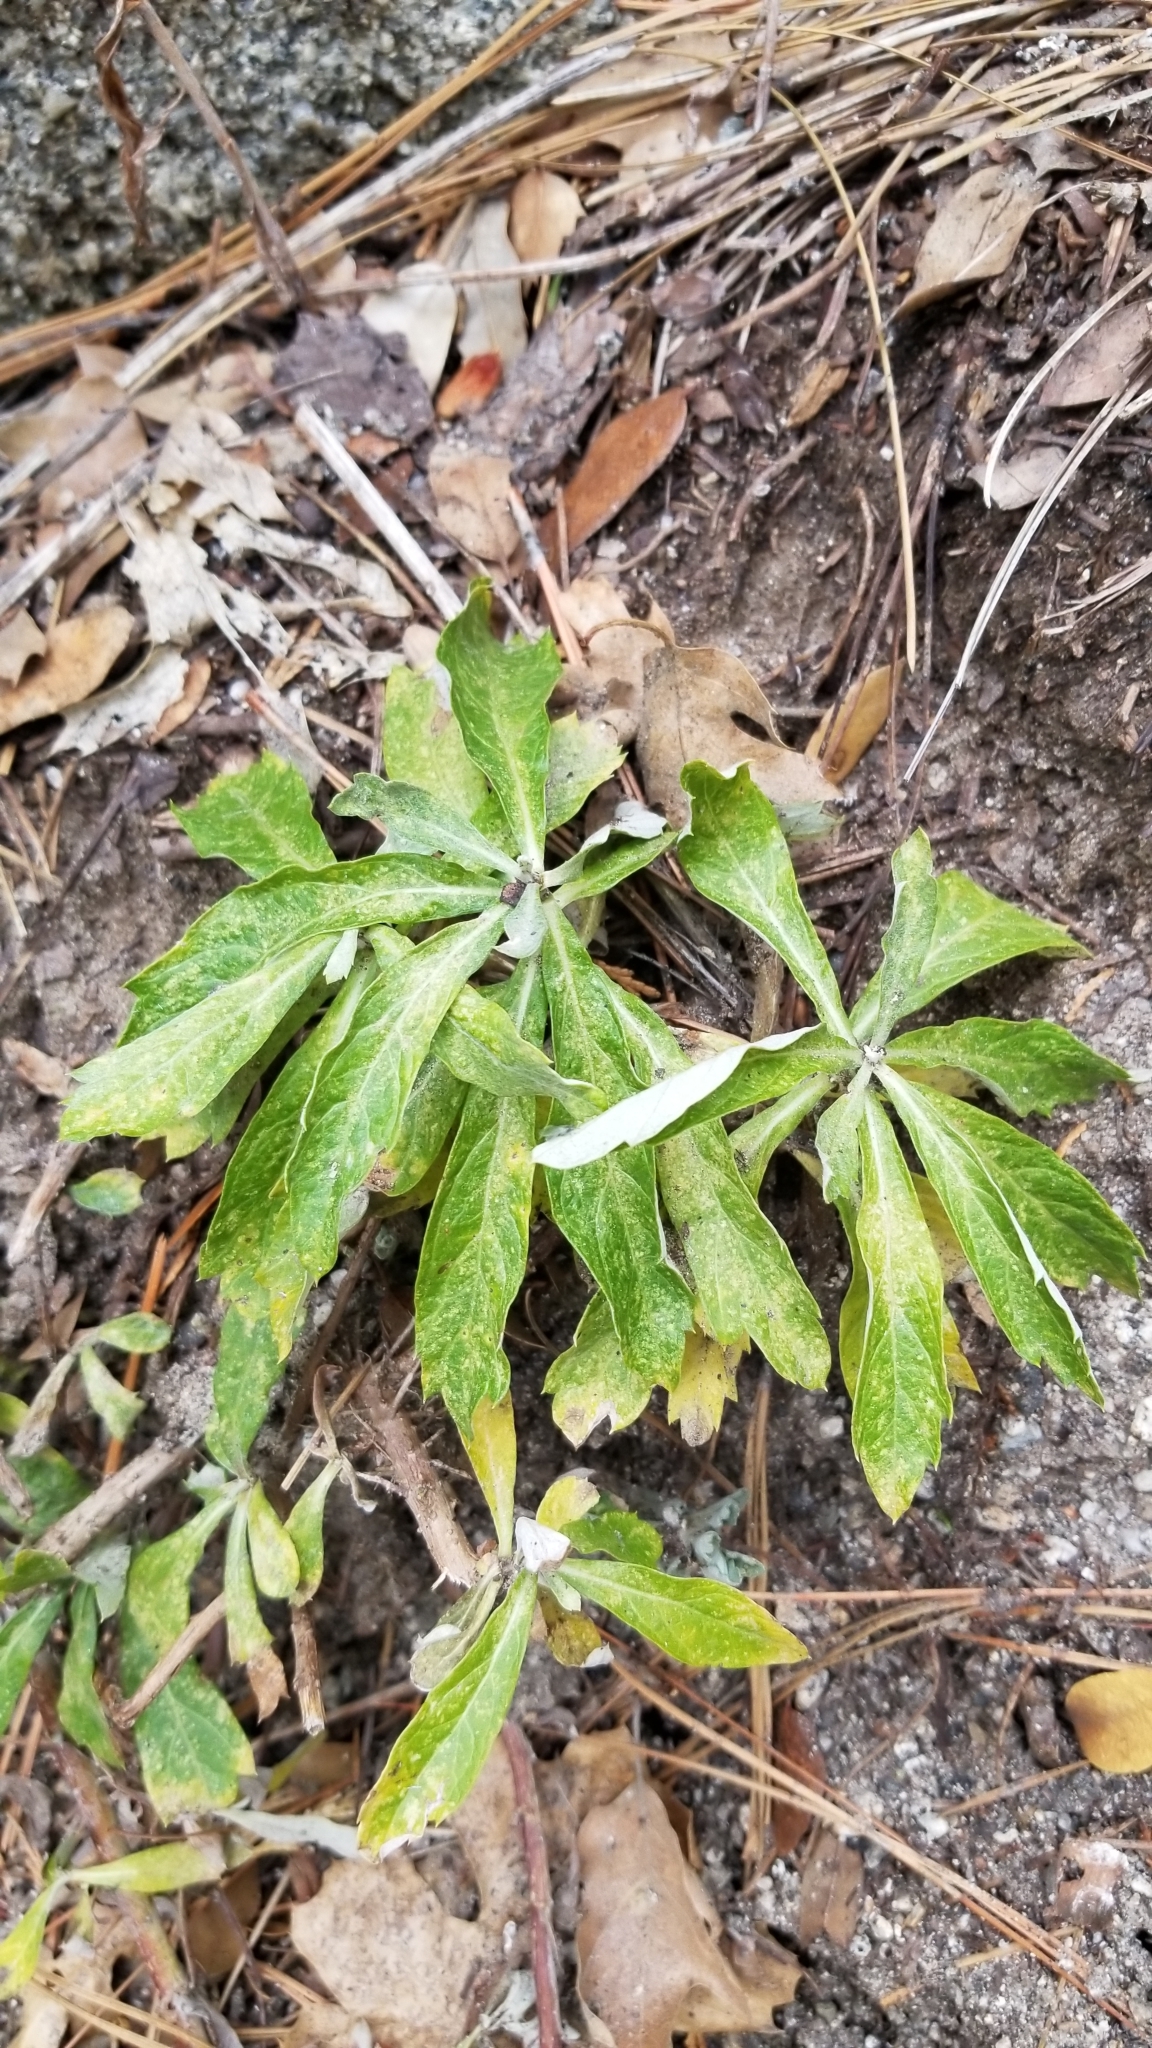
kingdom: Plantae
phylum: Tracheophyta
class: Magnoliopsida
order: Asterales
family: Asteraceae
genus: Artemisia
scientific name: Artemisia douglasiana
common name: Northwest mugwort
